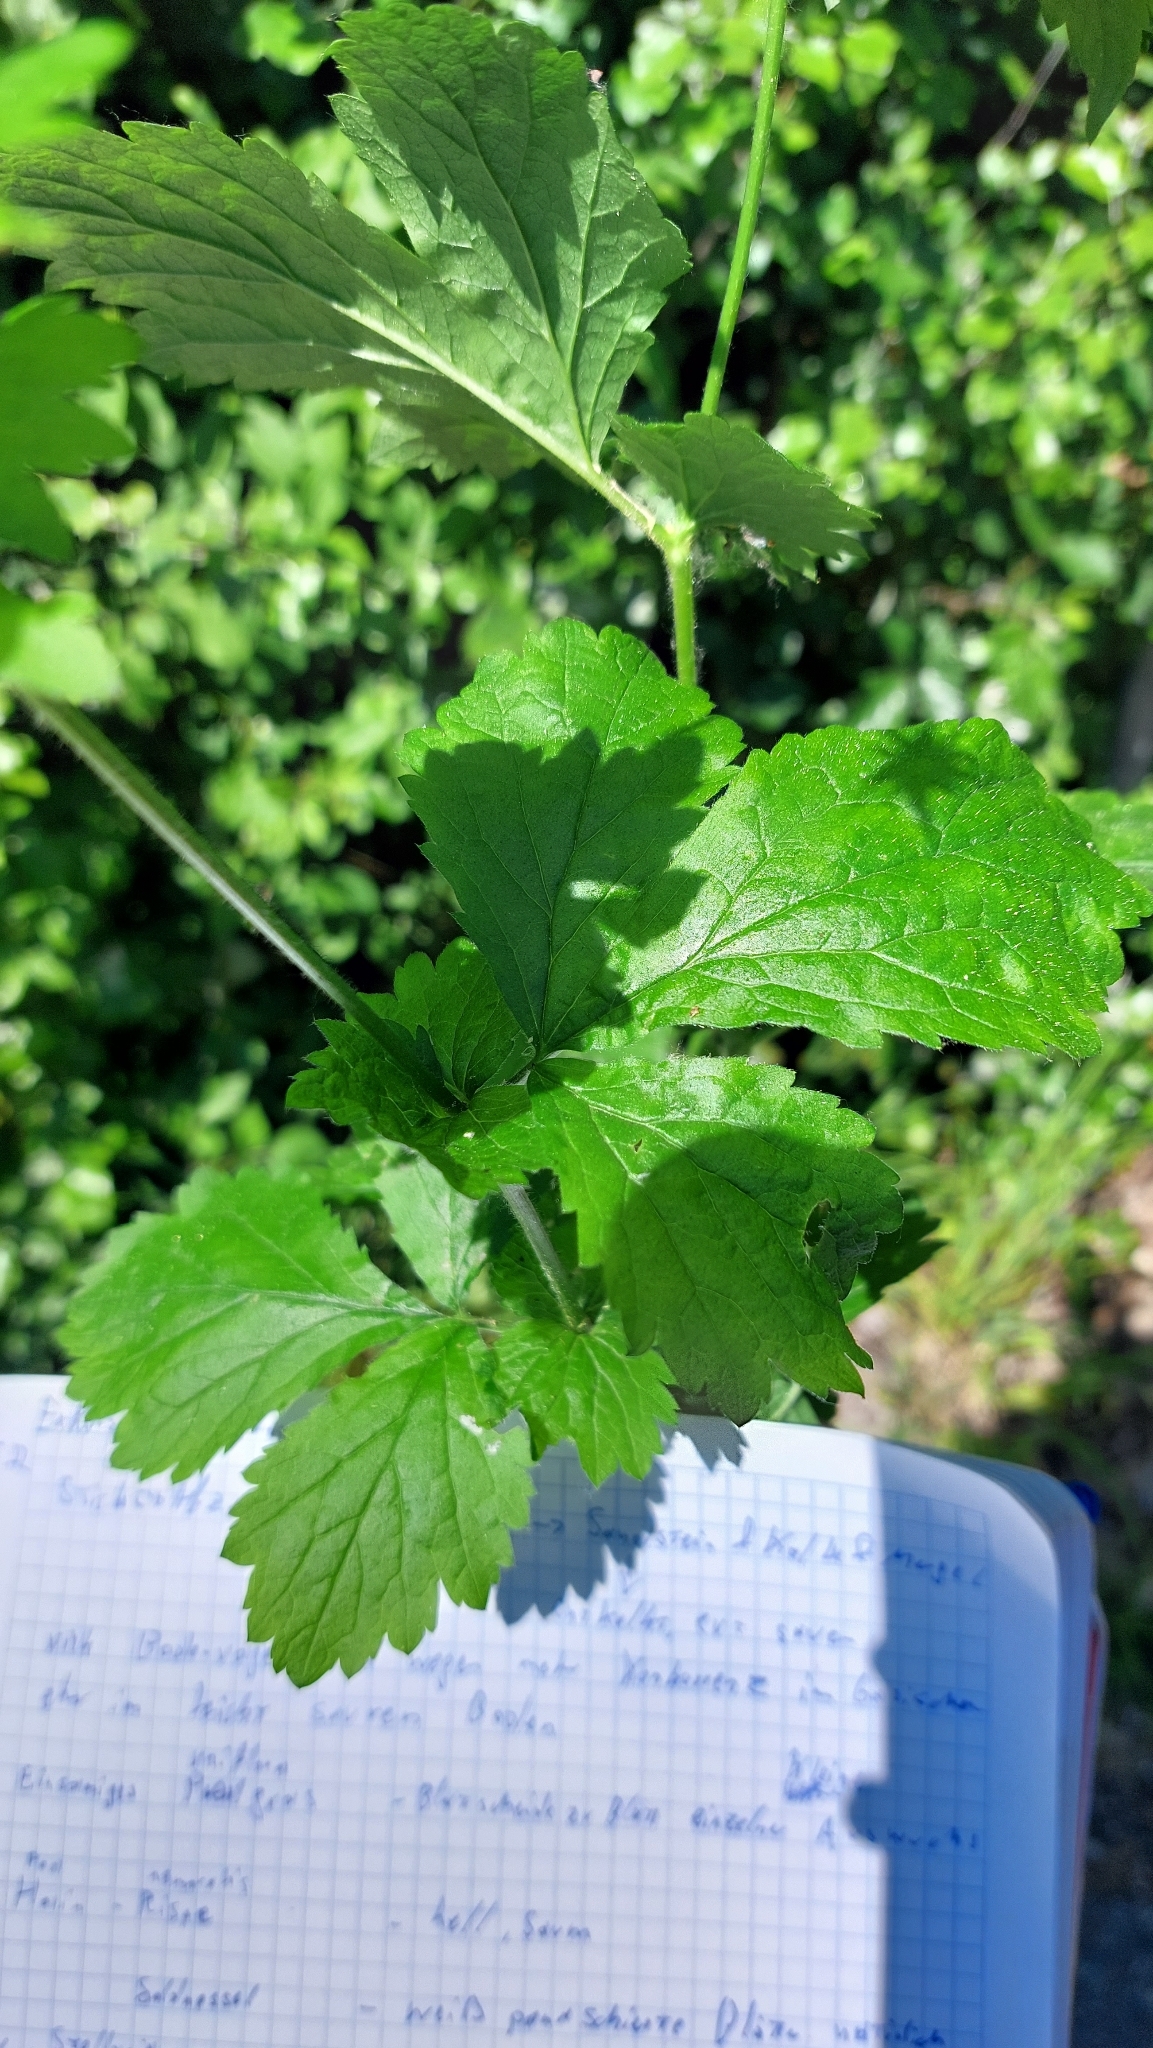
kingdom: Plantae
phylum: Tracheophyta
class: Magnoliopsida
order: Rosales
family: Rosaceae
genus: Geum
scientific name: Geum urbanum
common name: Wood avens
